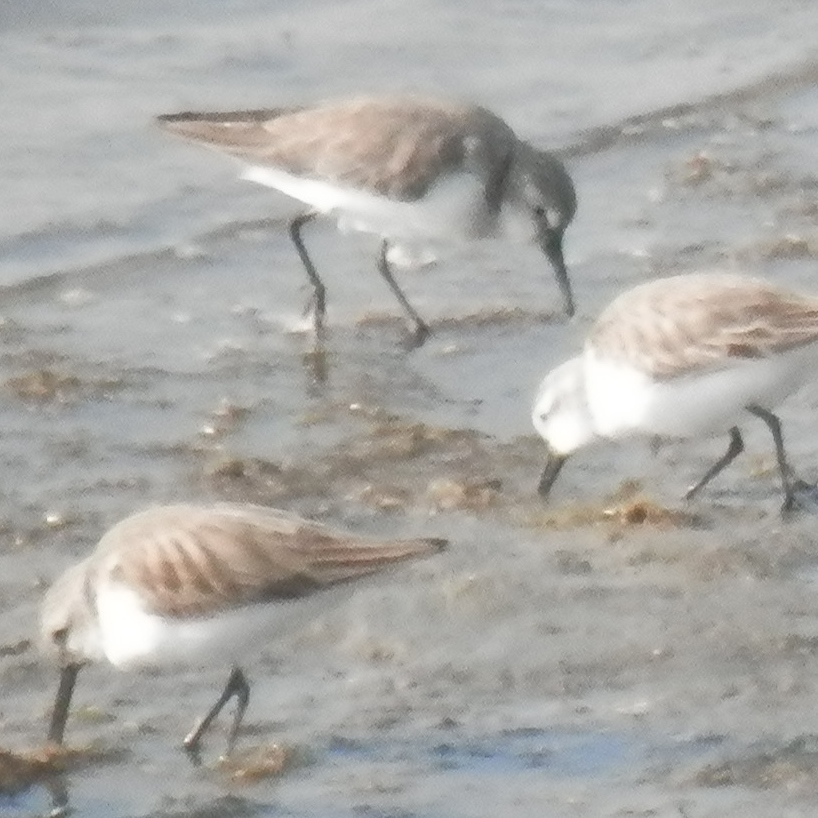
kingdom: Animalia
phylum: Chordata
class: Aves
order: Charadriiformes
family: Scolopacidae
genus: Calidris
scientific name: Calidris alpina
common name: Dunlin
